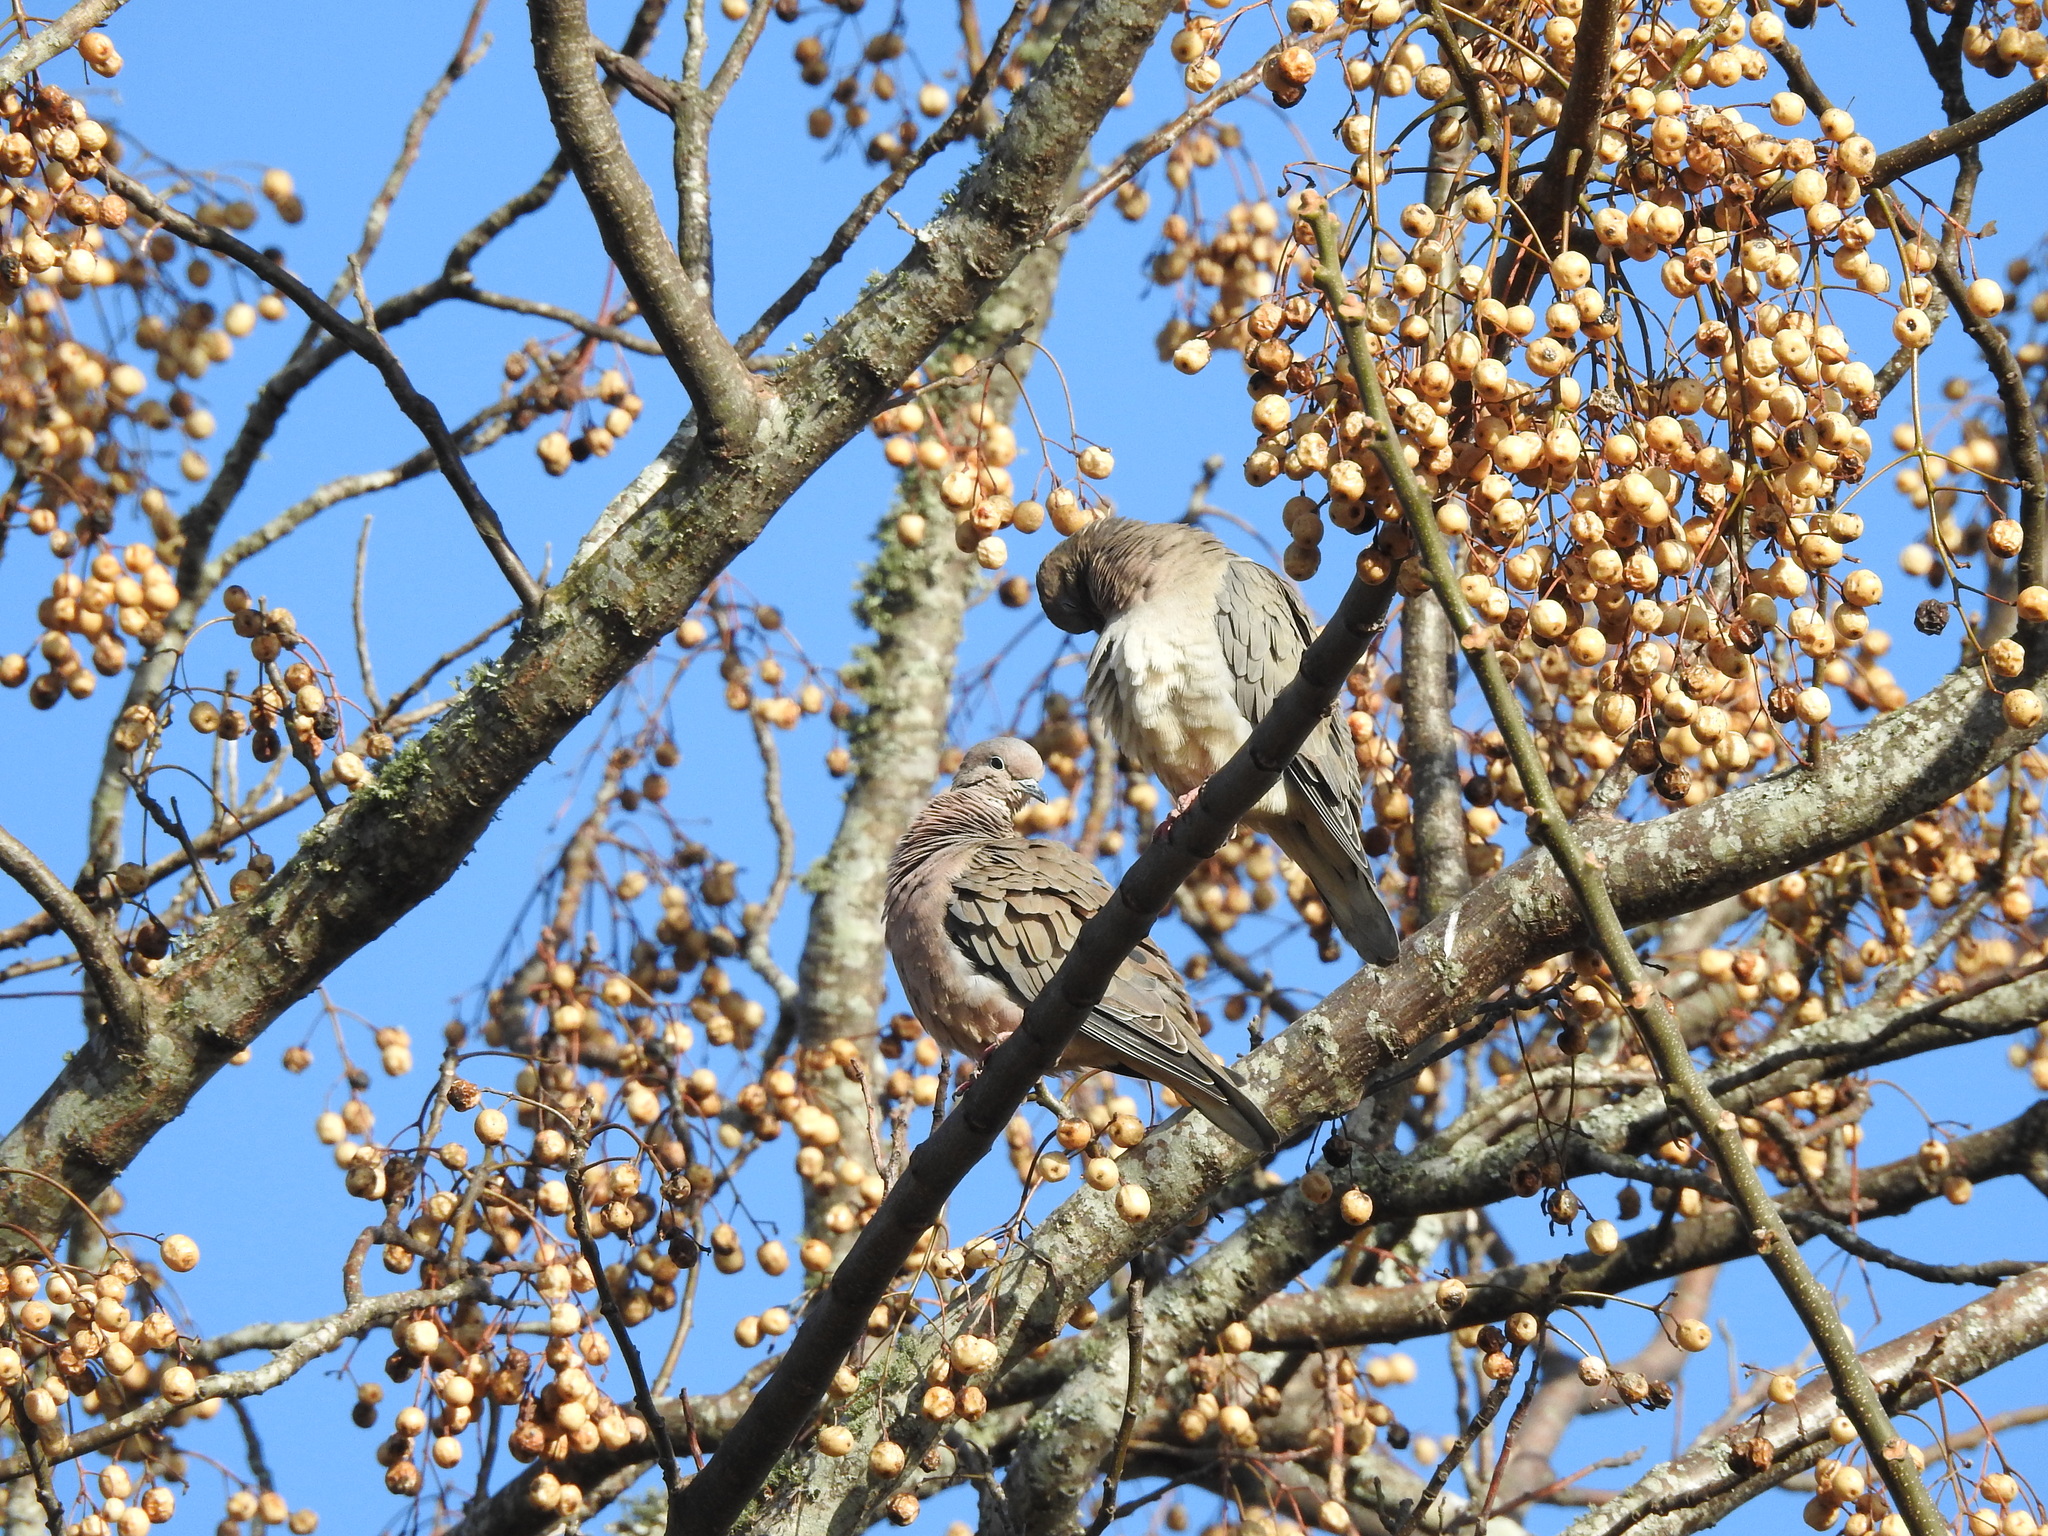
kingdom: Animalia
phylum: Chordata
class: Aves
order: Columbiformes
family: Columbidae
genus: Zenaida
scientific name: Zenaida auriculata
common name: Eared dove
